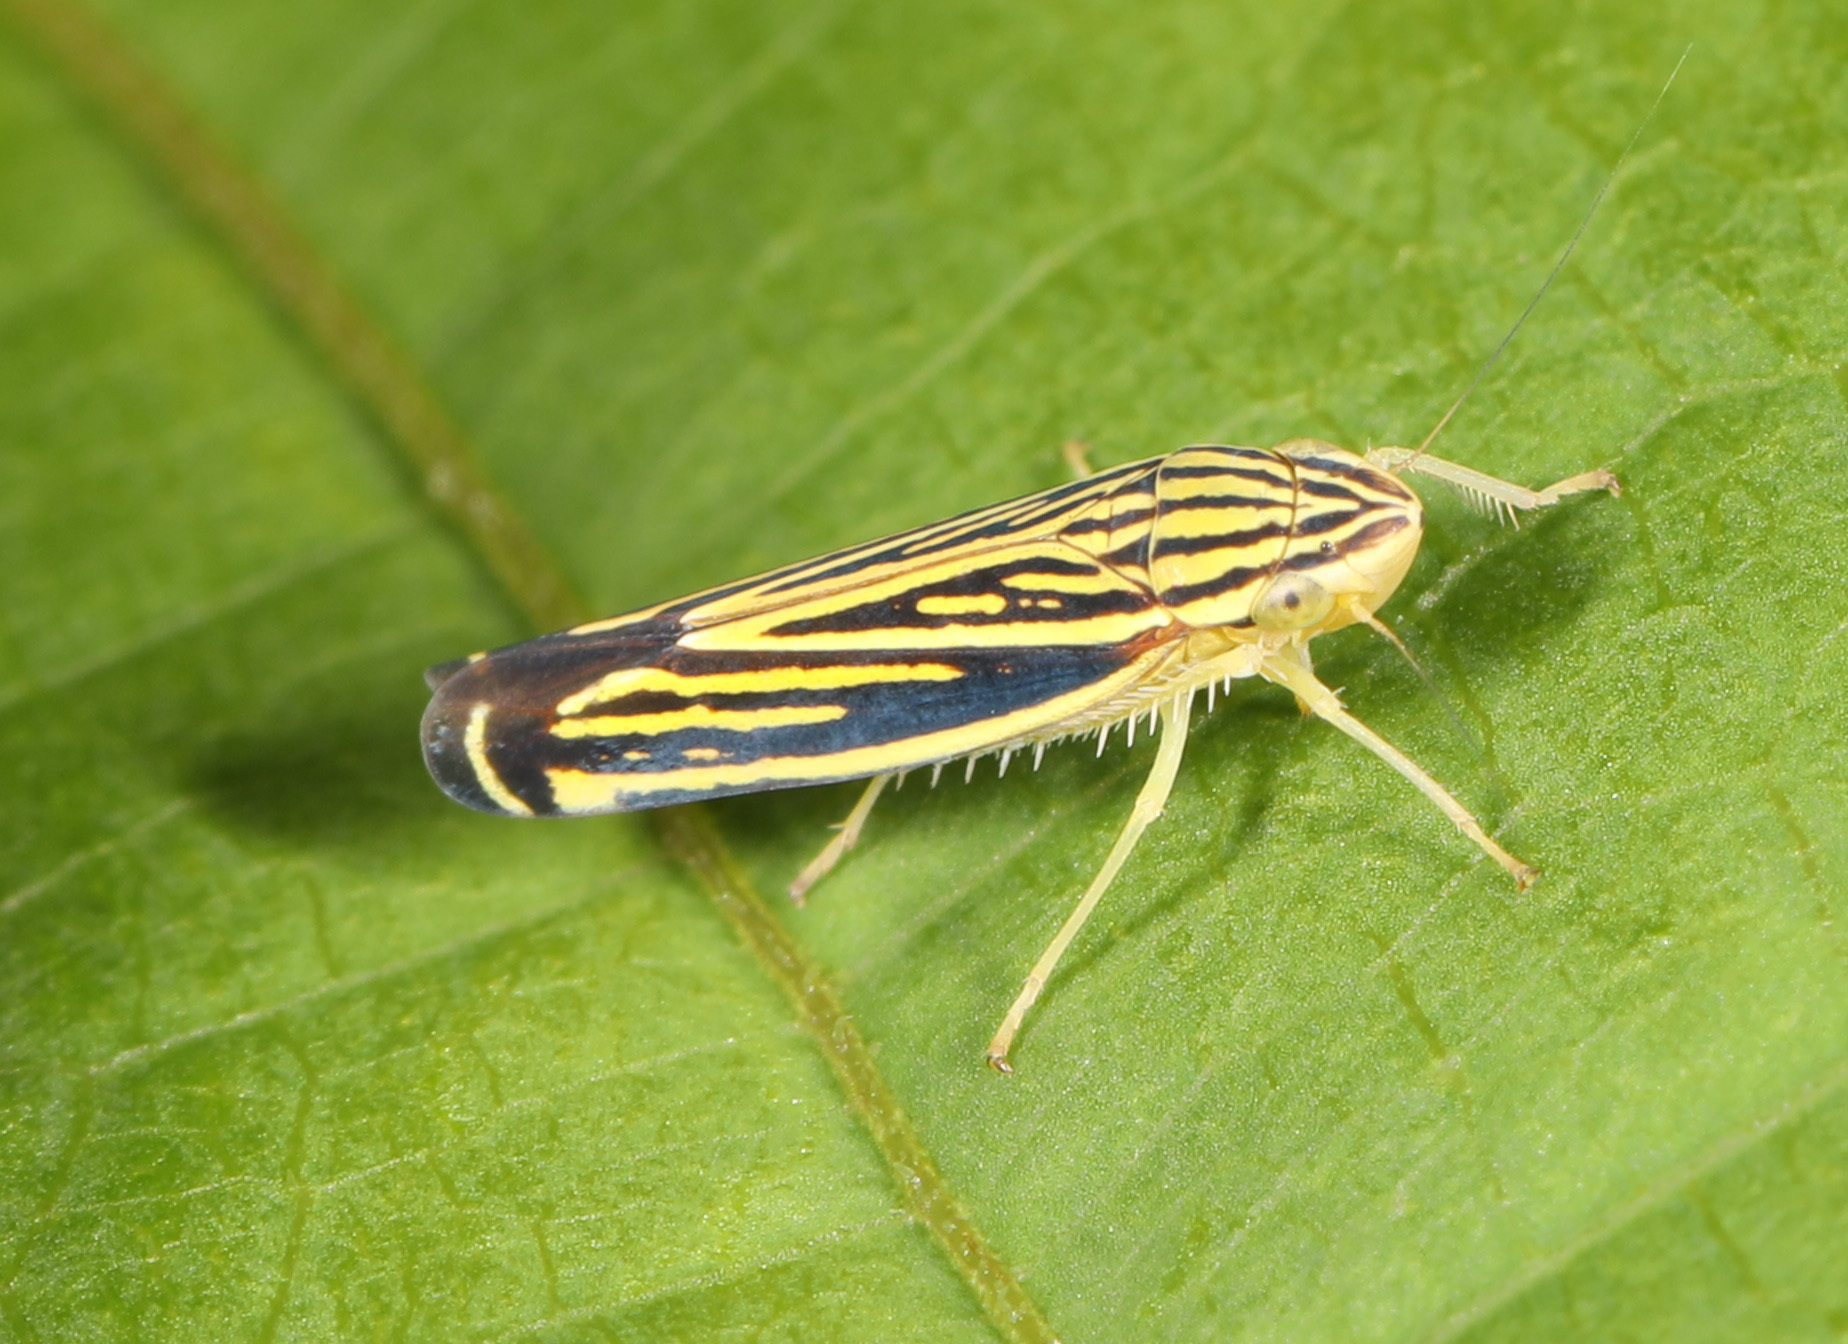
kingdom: Animalia
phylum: Arthropoda
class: Insecta
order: Hemiptera
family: Cicadellidae
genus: Sibovia
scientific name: Sibovia occatoria
